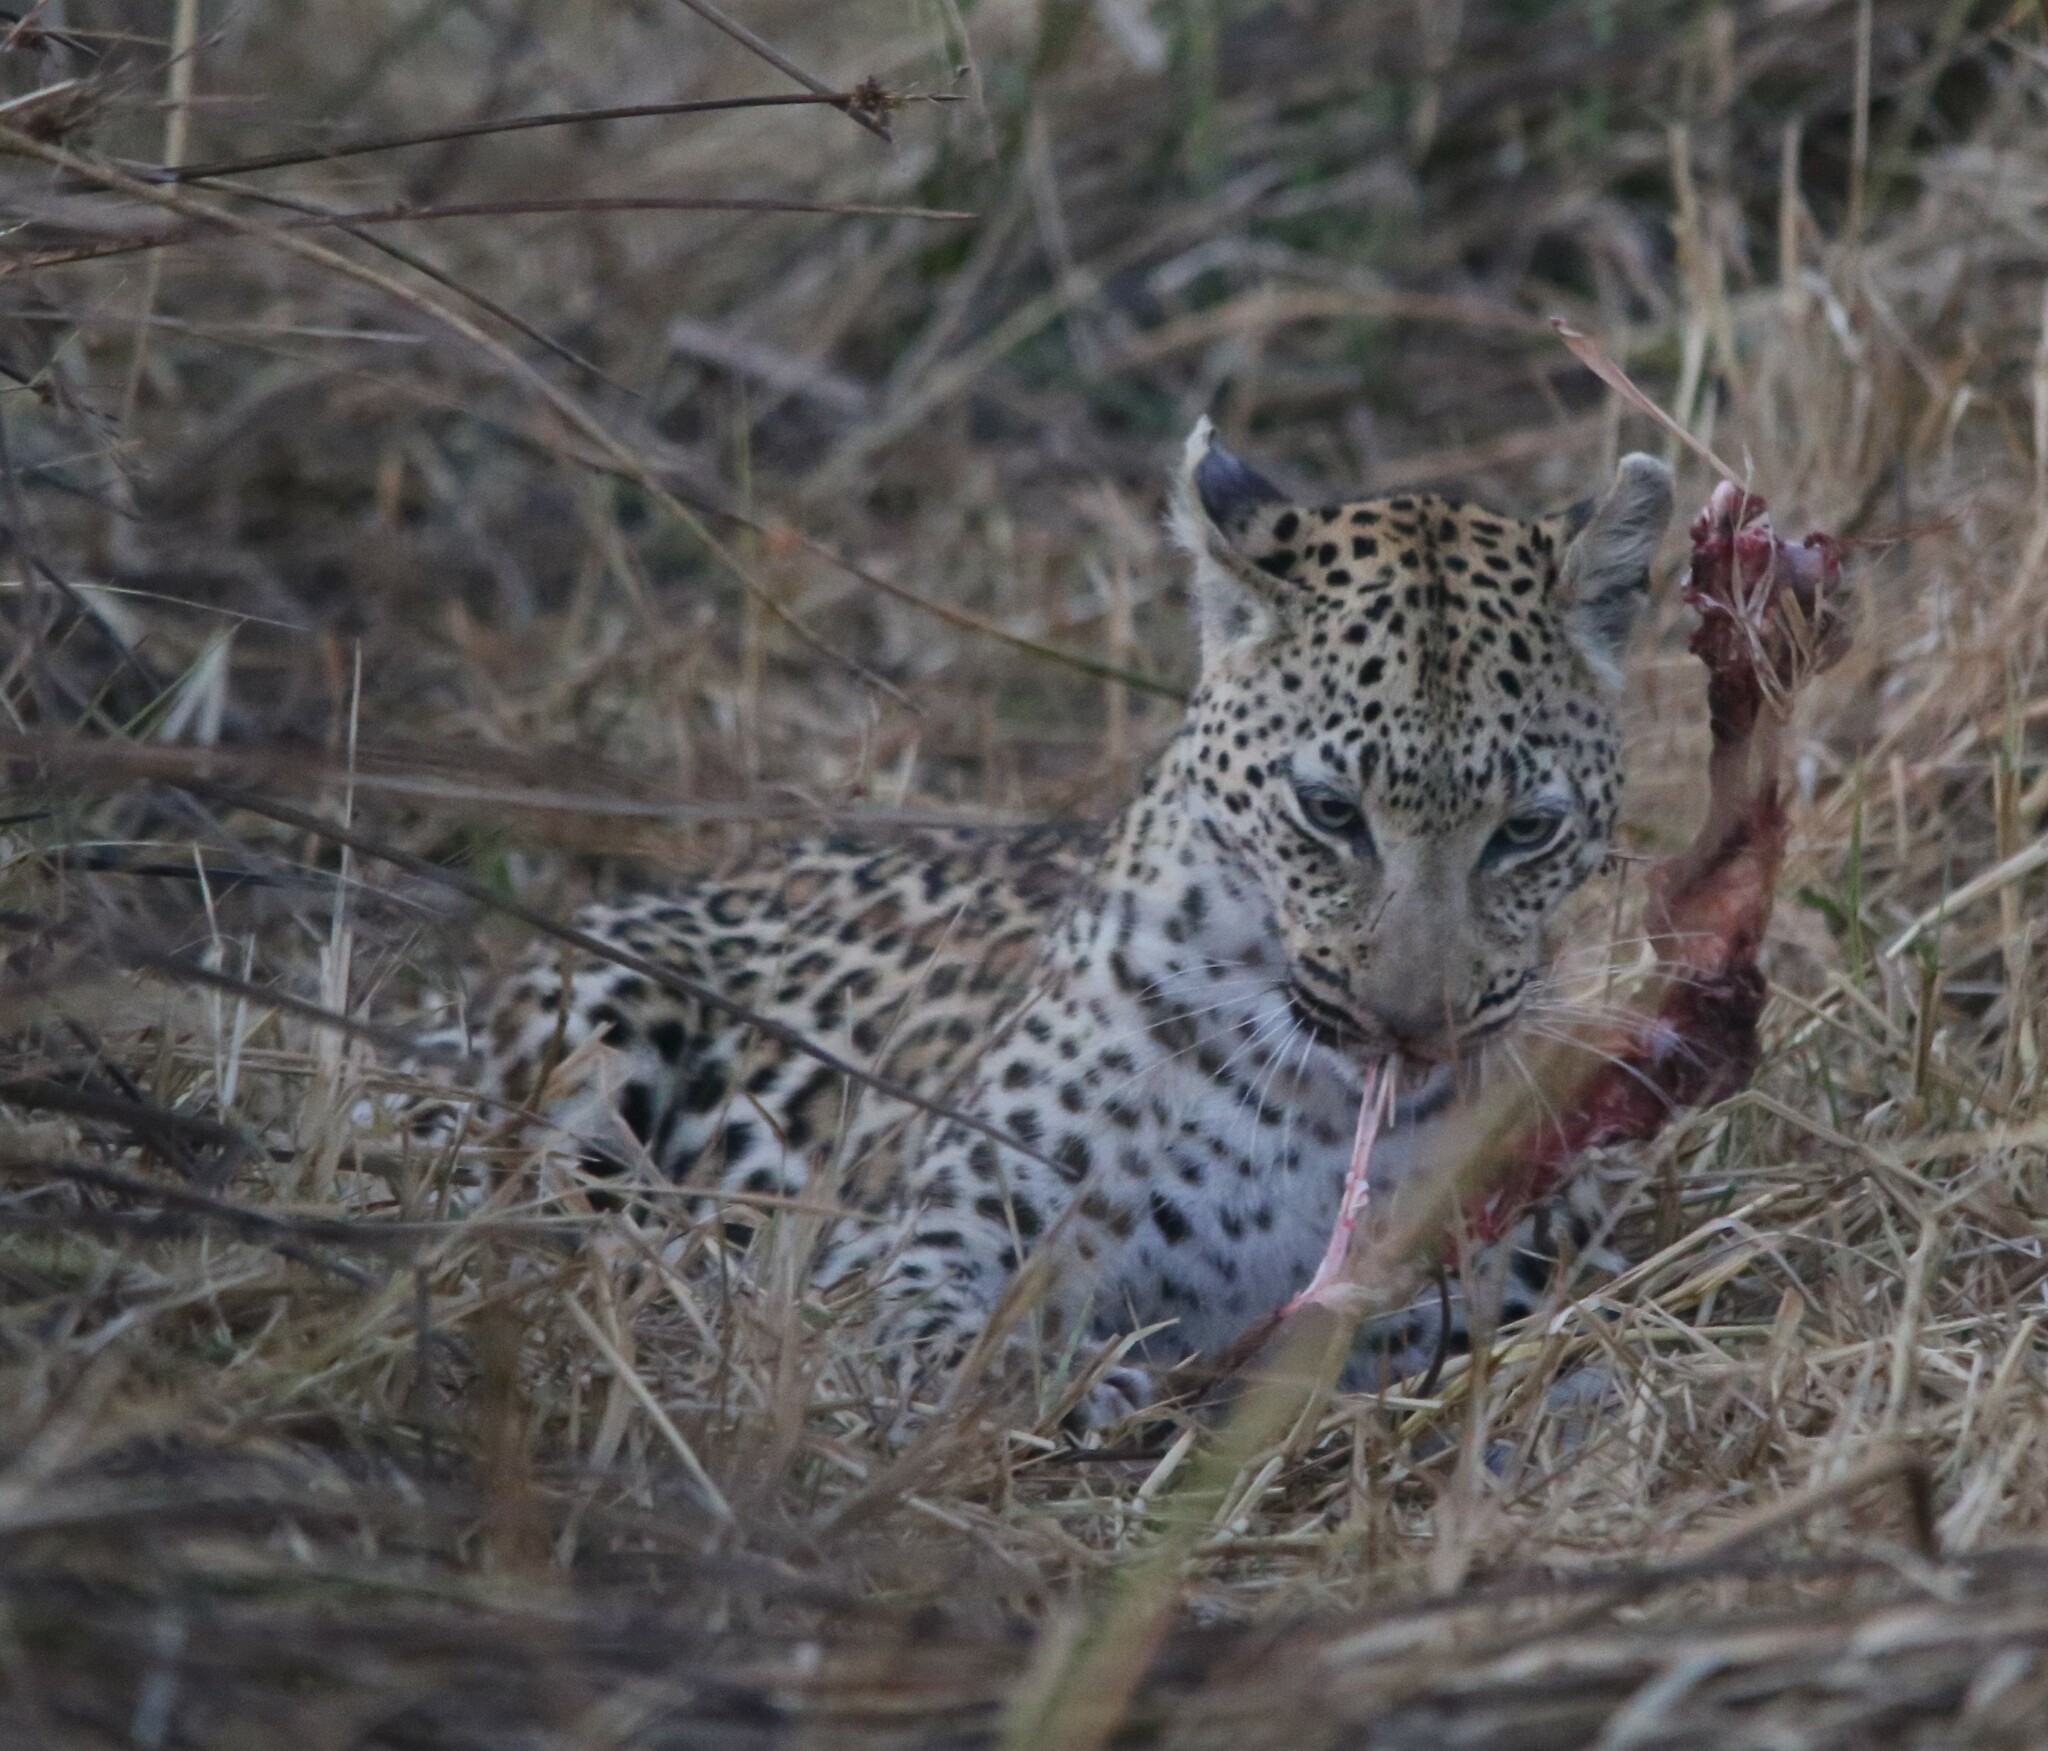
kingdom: Animalia
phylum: Chordata
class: Mammalia
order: Carnivora
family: Felidae
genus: Panthera
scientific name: Panthera pardus
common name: Leopard
